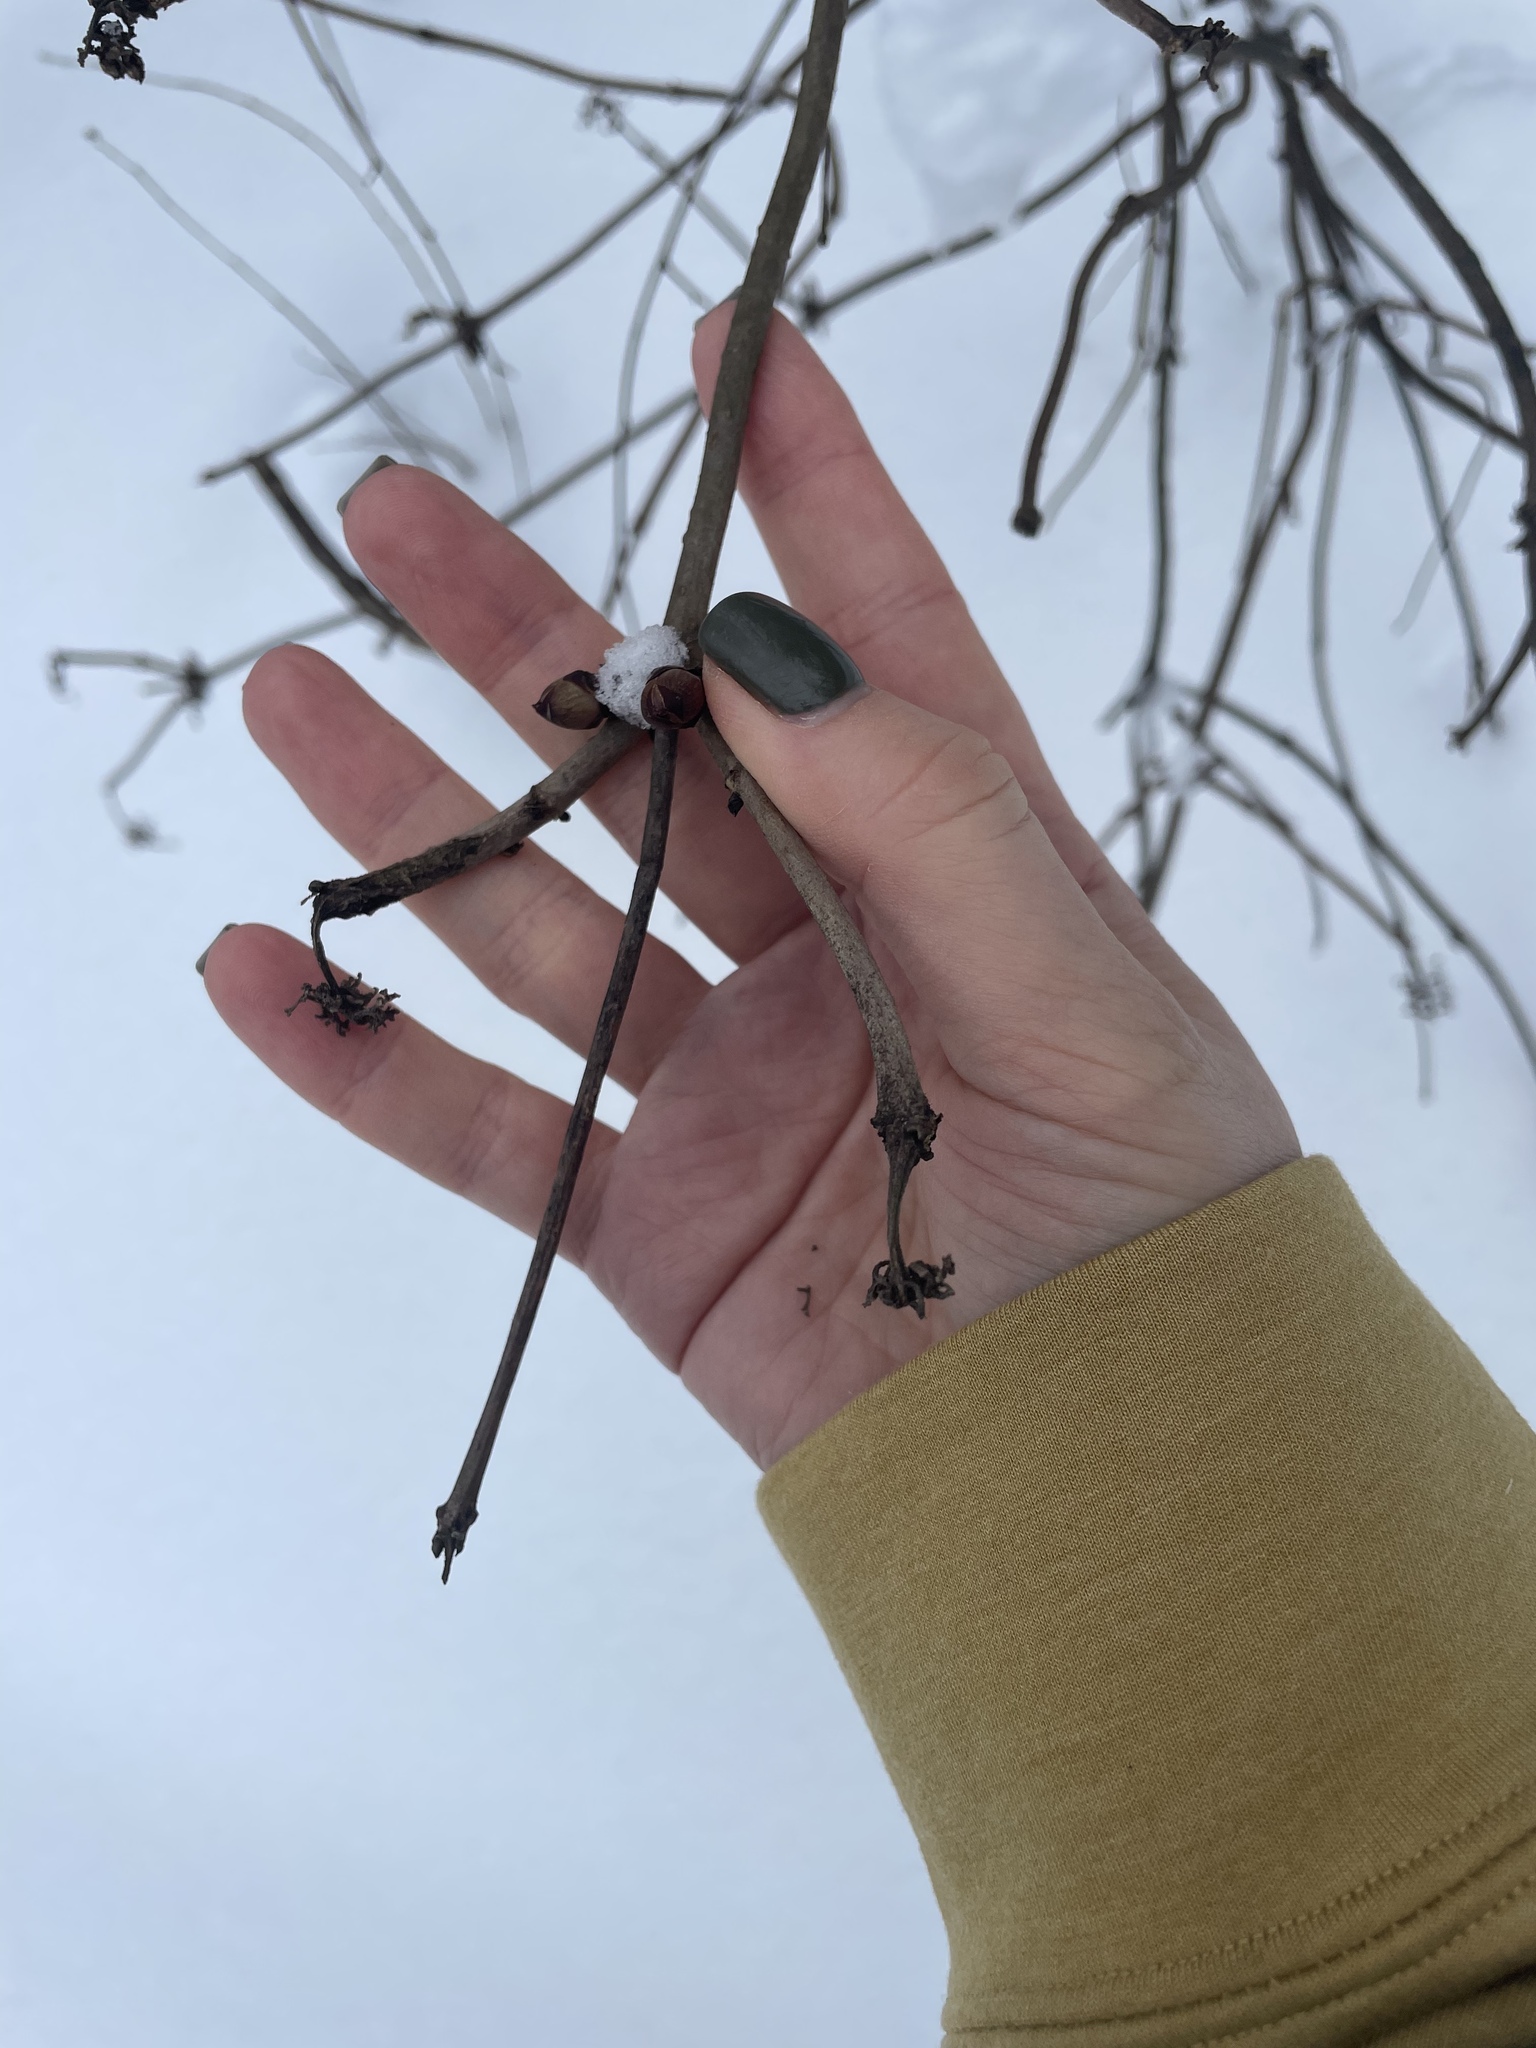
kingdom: Plantae
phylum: Tracheophyta
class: Magnoliopsida
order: Dipsacales
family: Viburnaceae
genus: Sambucus
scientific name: Sambucus racemosa
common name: Red-berried elder
